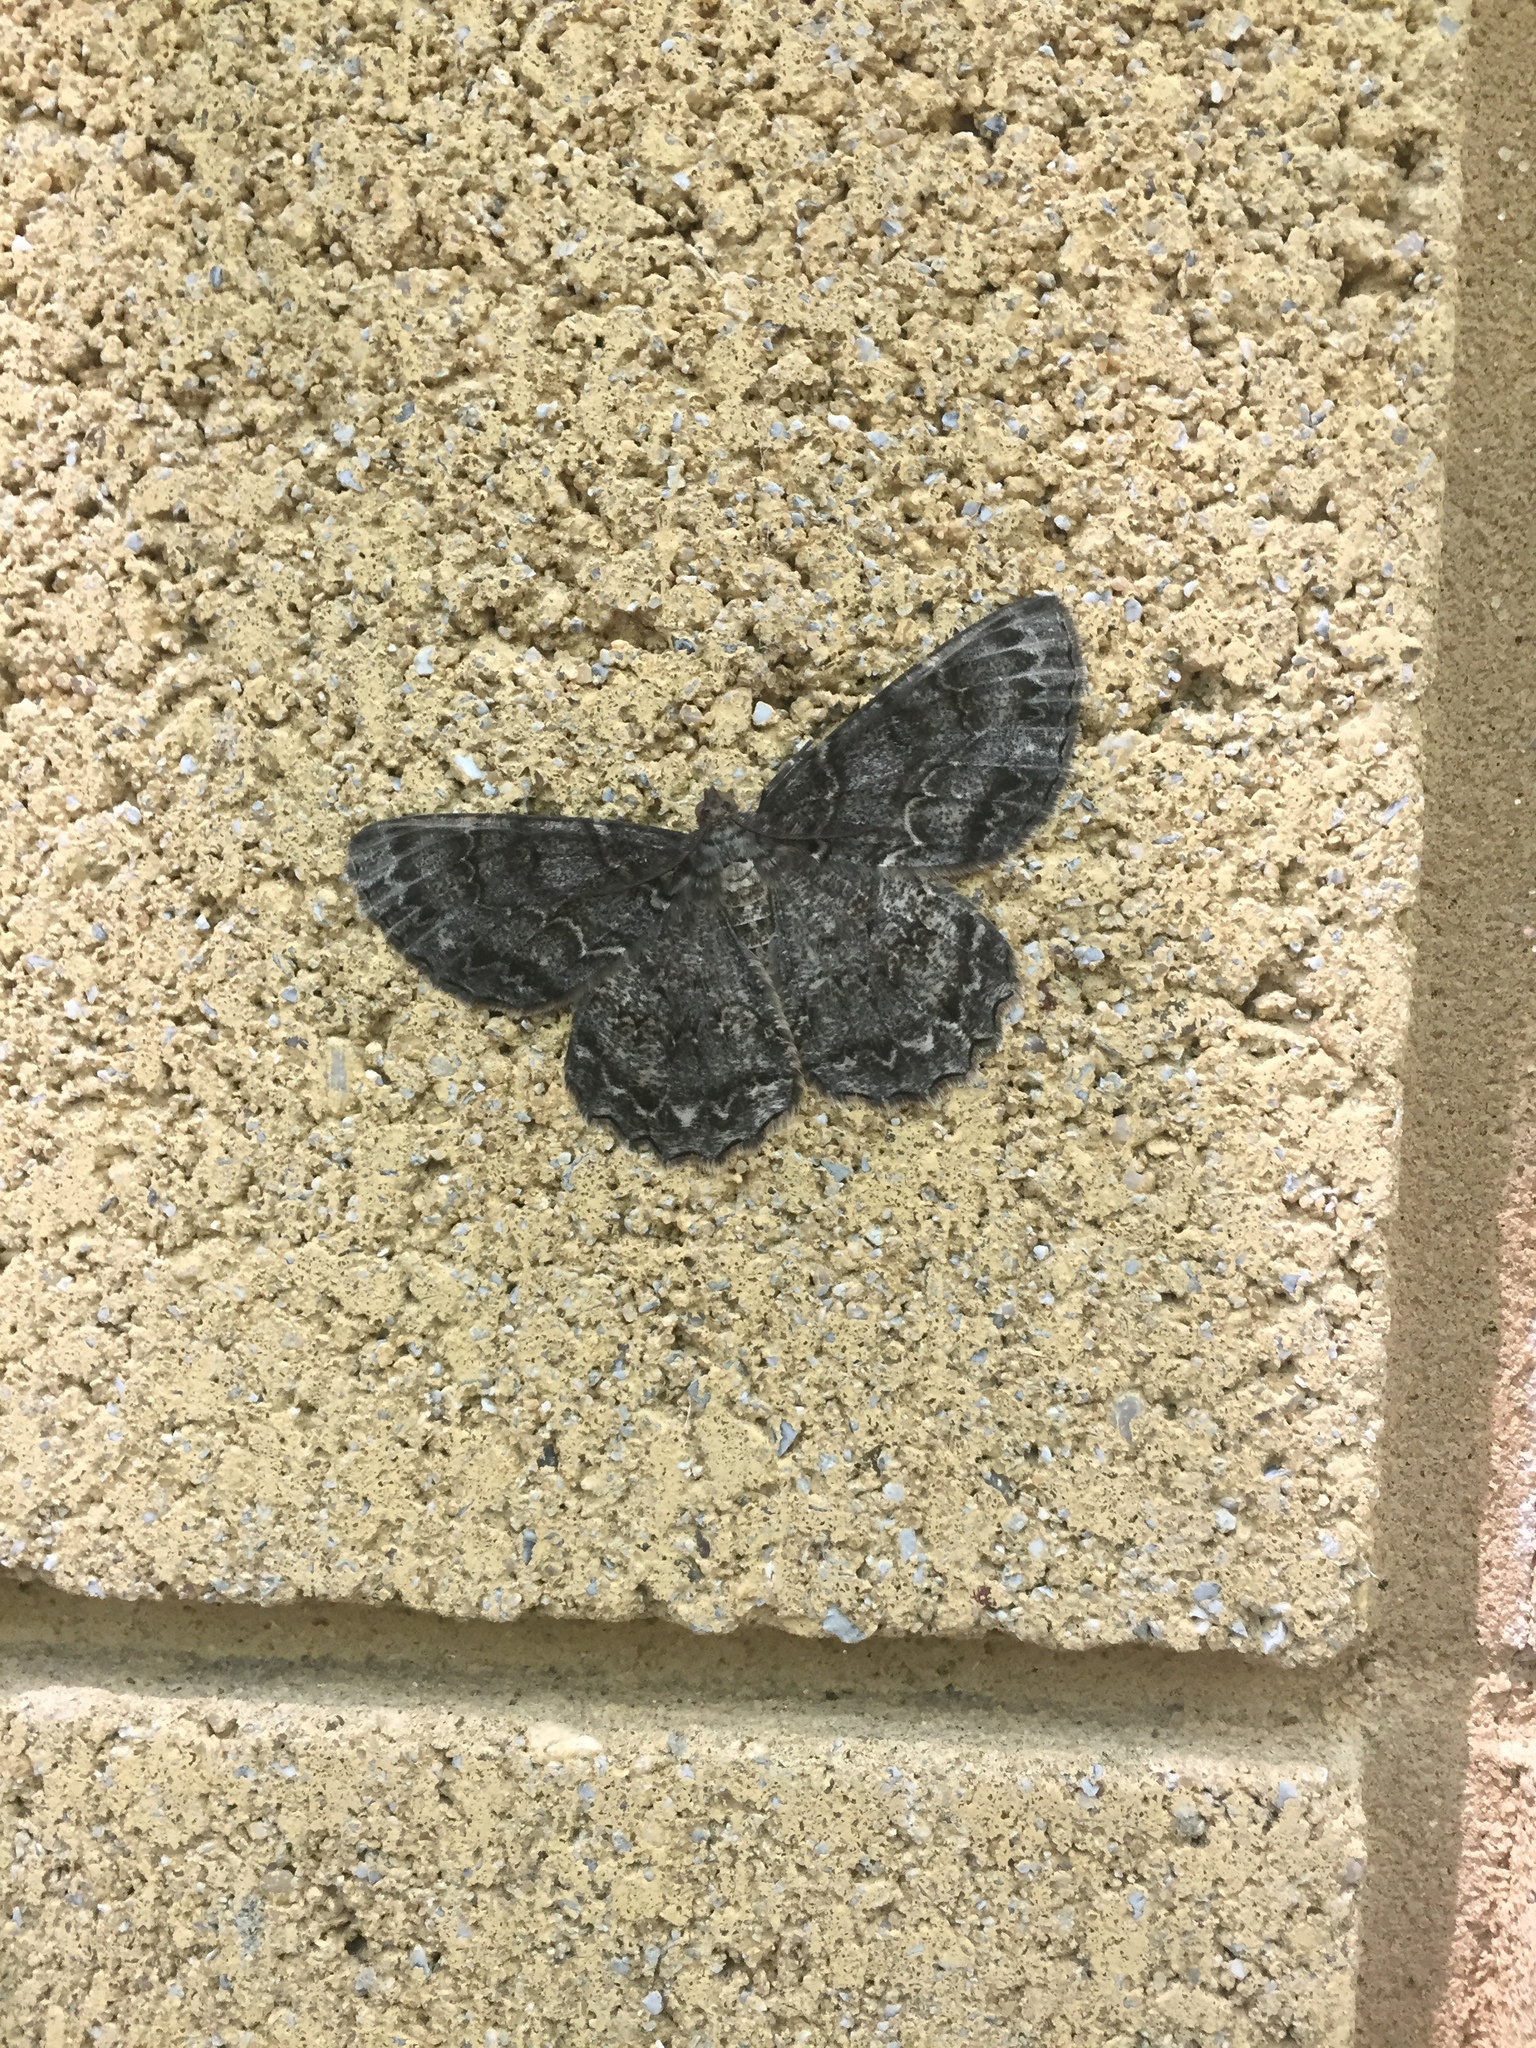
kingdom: Animalia
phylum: Arthropoda
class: Insecta
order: Lepidoptera
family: Geometridae
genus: Epimecis
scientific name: Epimecis hortaria
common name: Tulip-tree beauty
